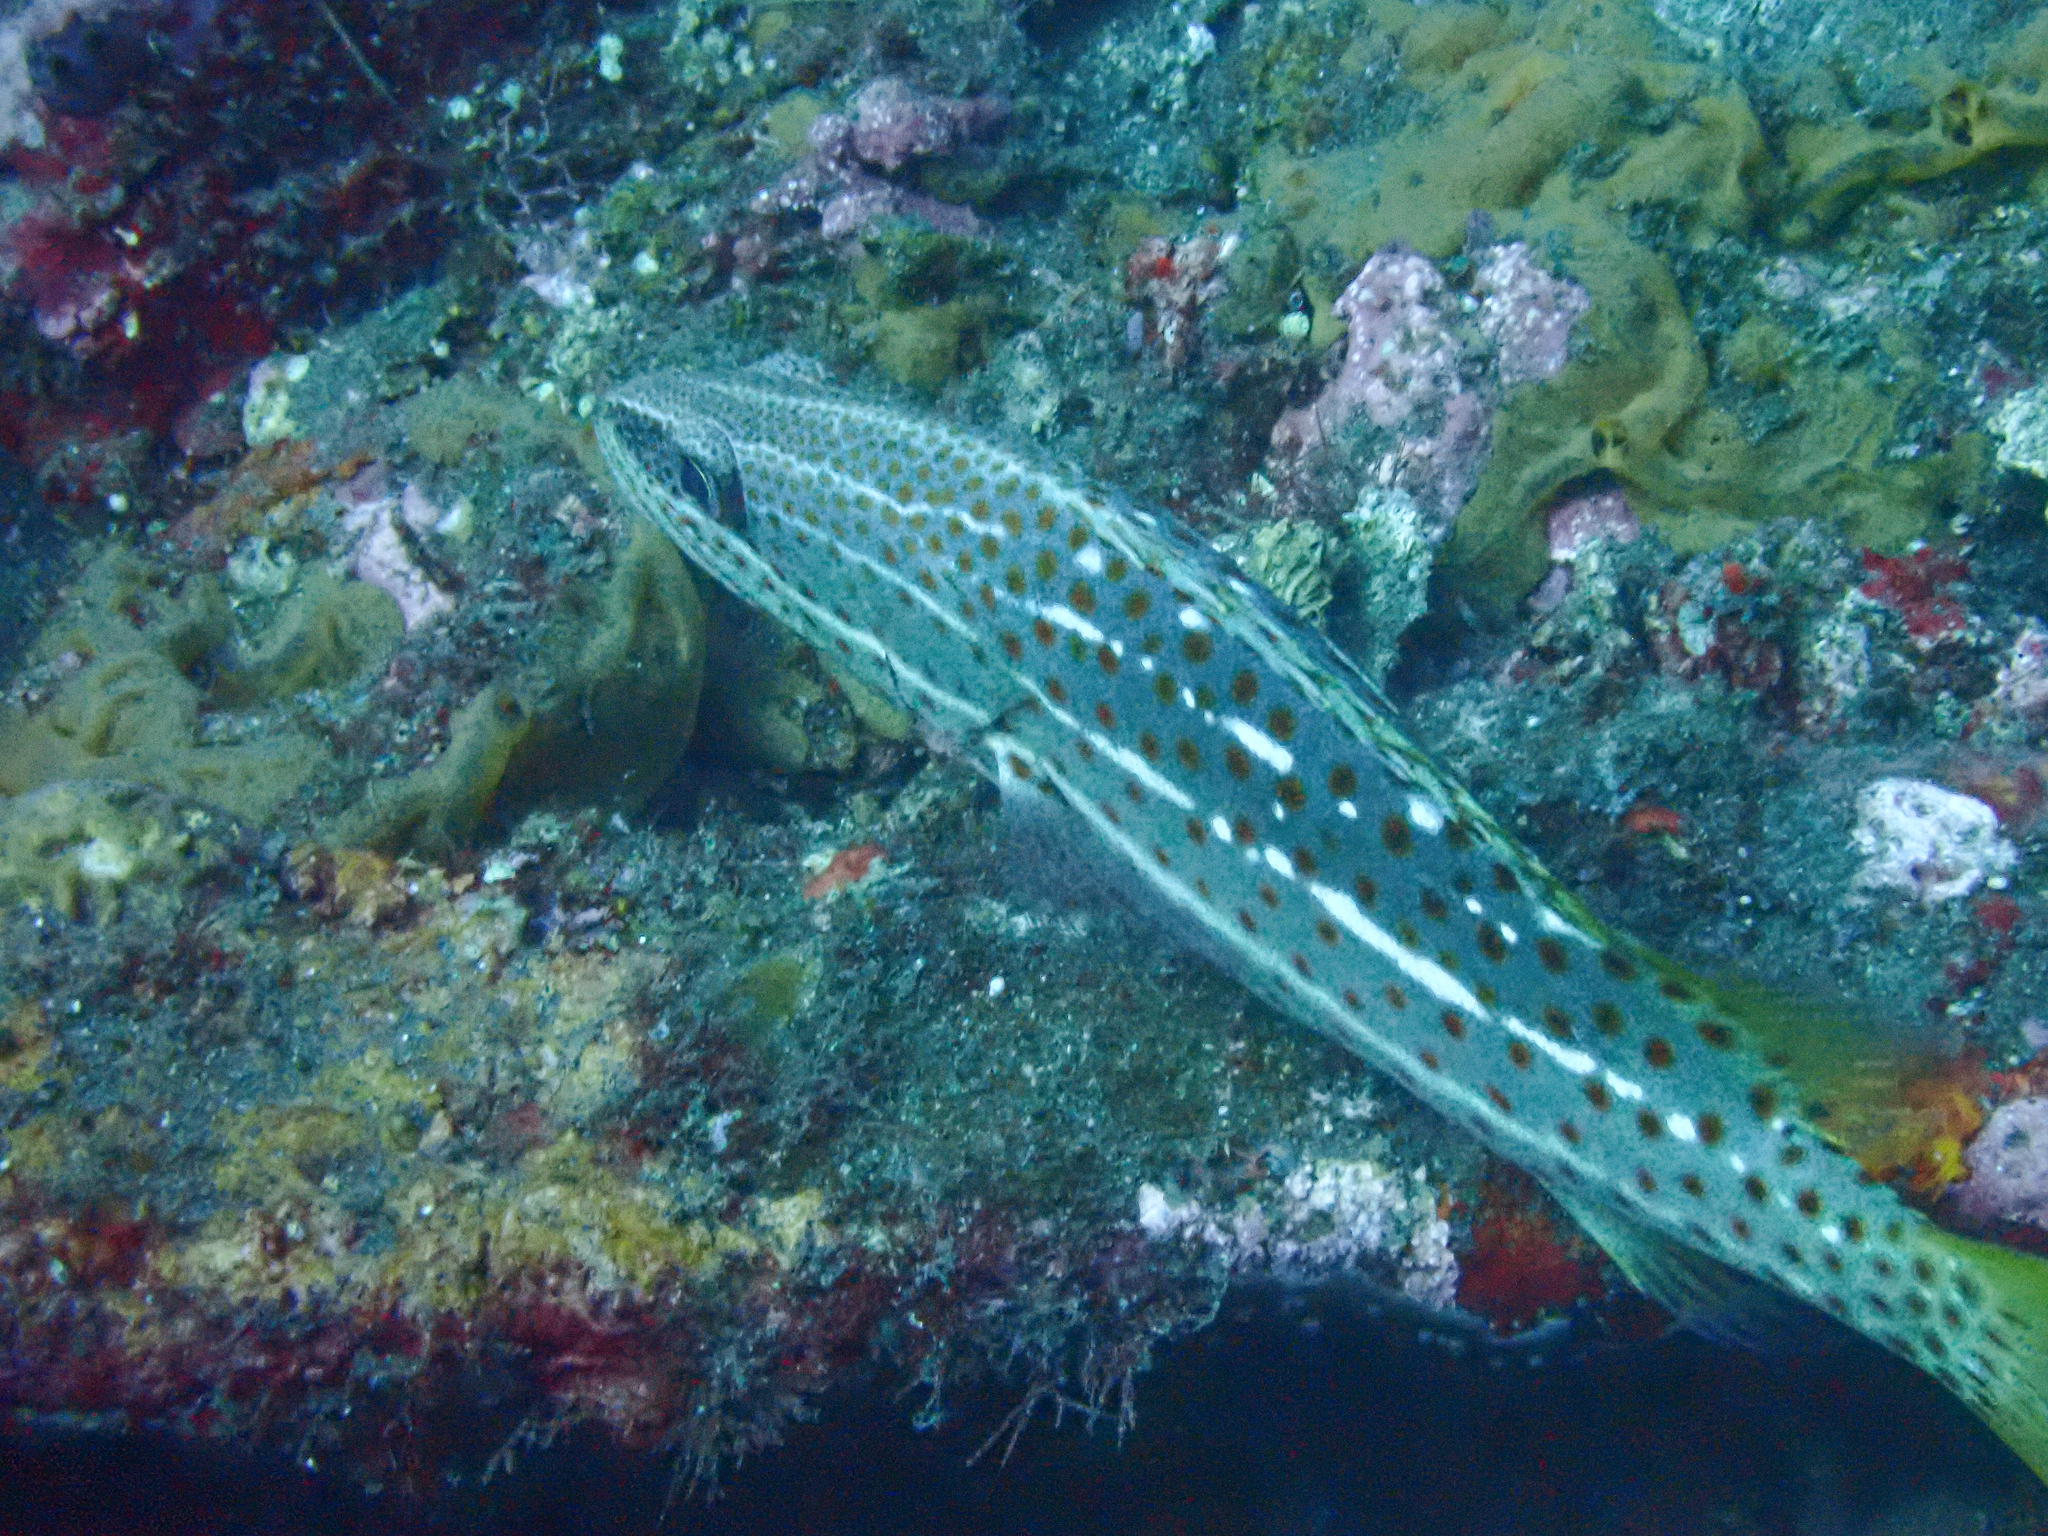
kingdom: Animalia
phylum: Chordata
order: Perciformes
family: Serranidae
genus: Anyperodon
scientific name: Anyperodon leucogrammicus
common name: Slender grouper
